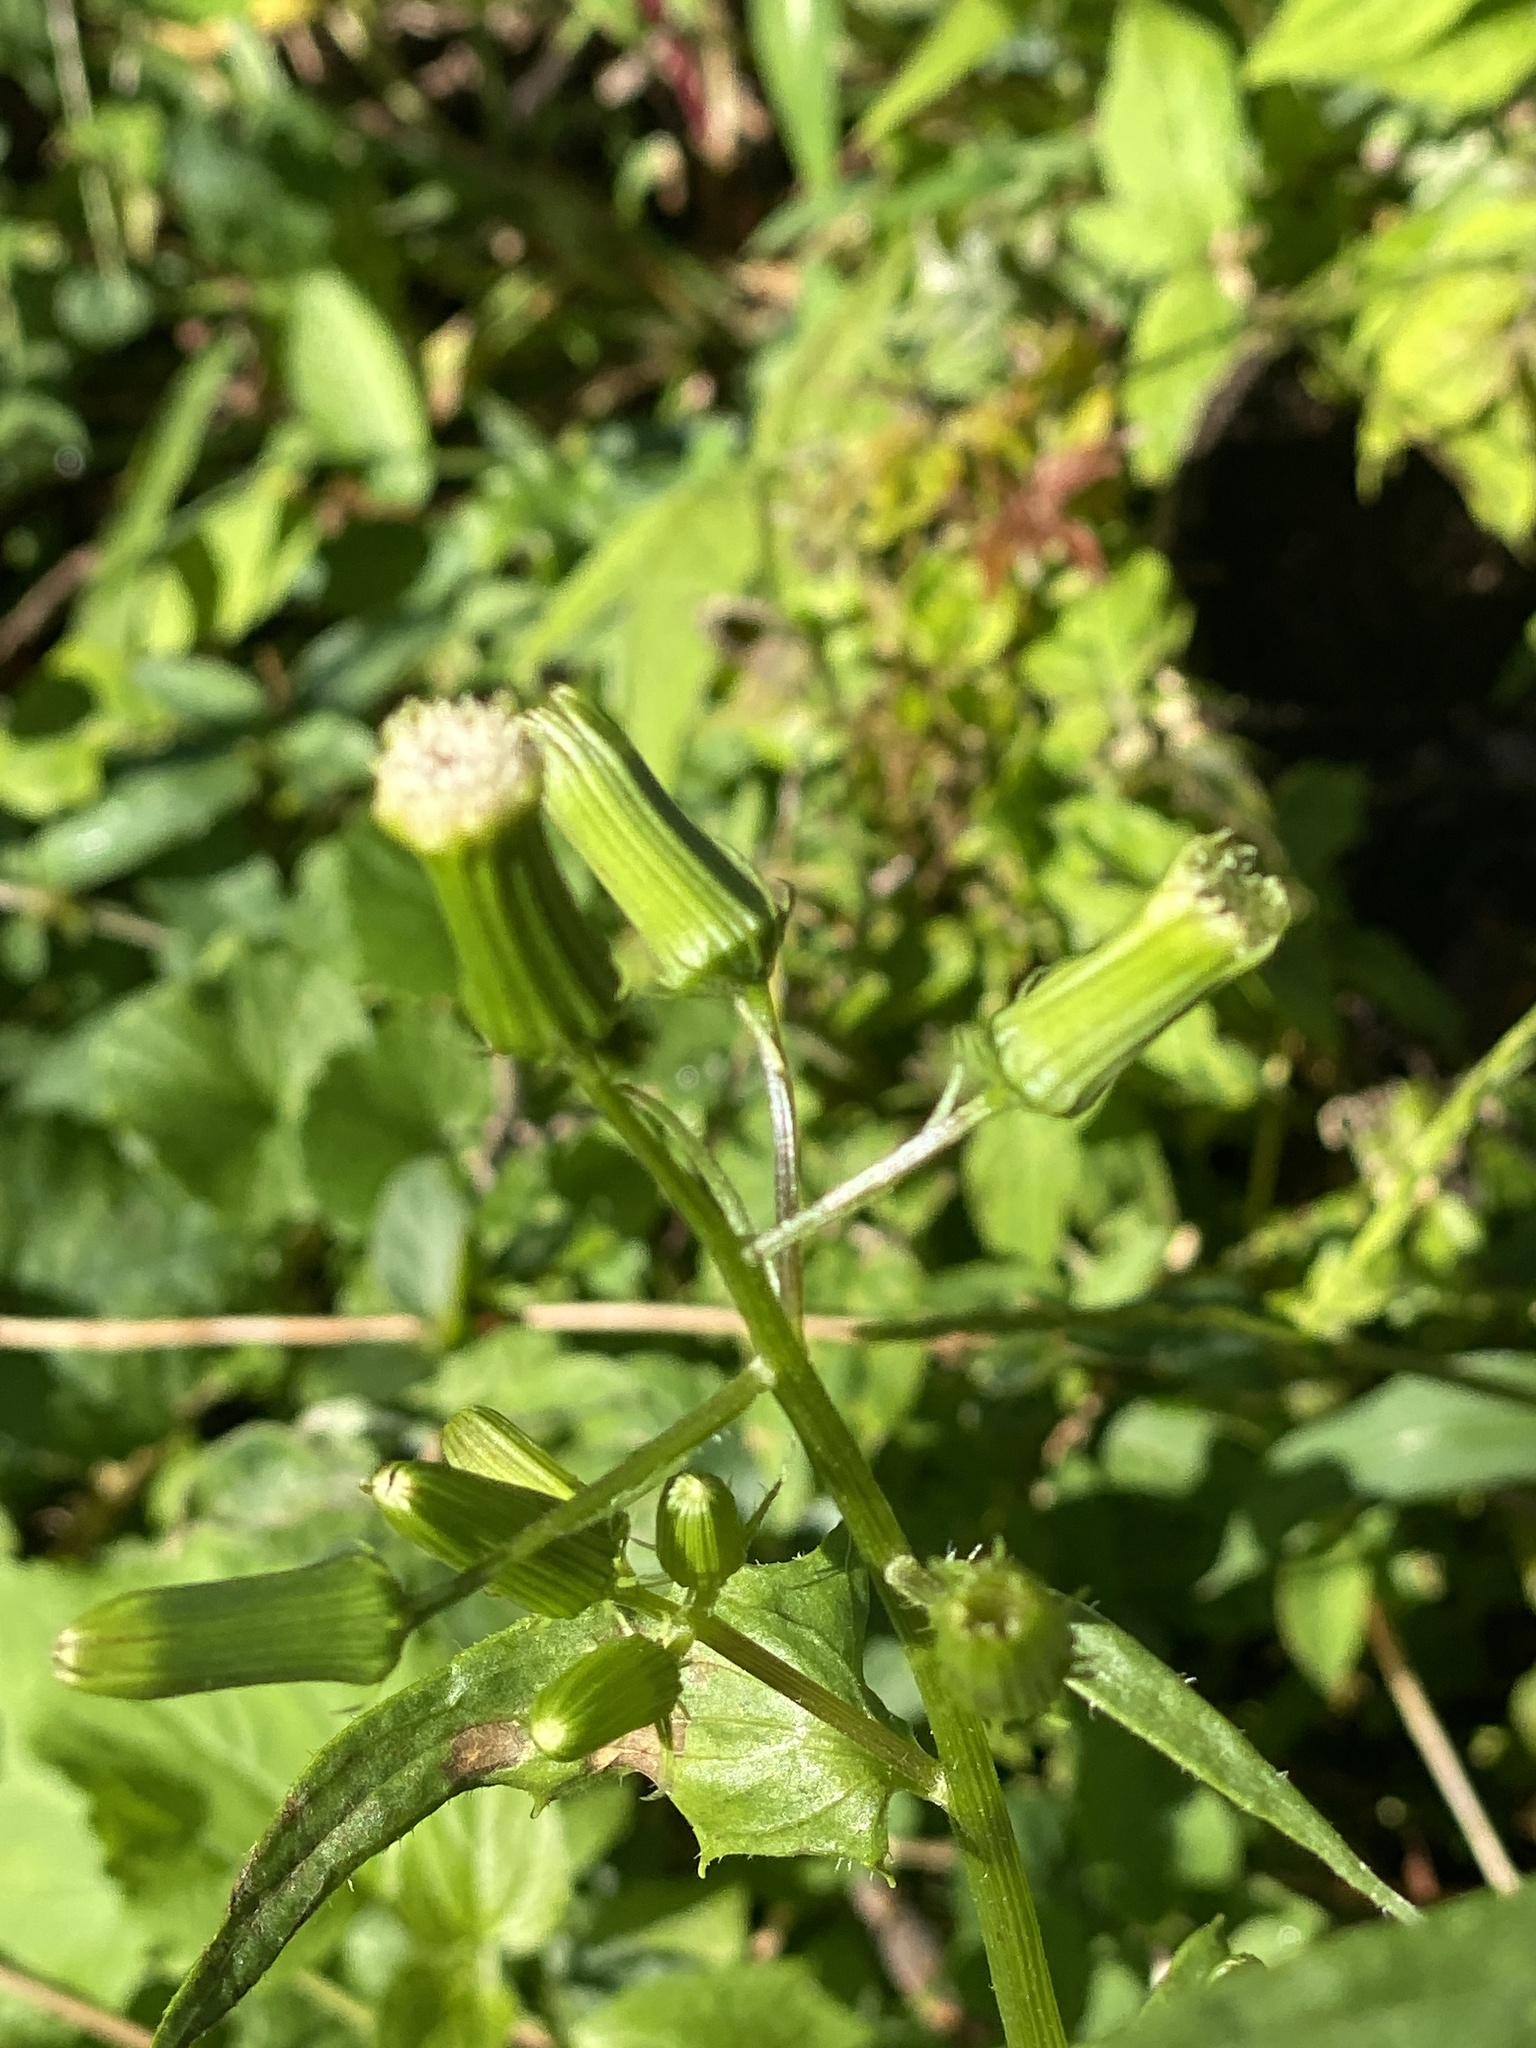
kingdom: Plantae
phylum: Tracheophyta
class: Magnoliopsida
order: Asterales
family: Asteraceae
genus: Erechtites
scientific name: Erechtites hieraciifolius
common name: American burnweed
